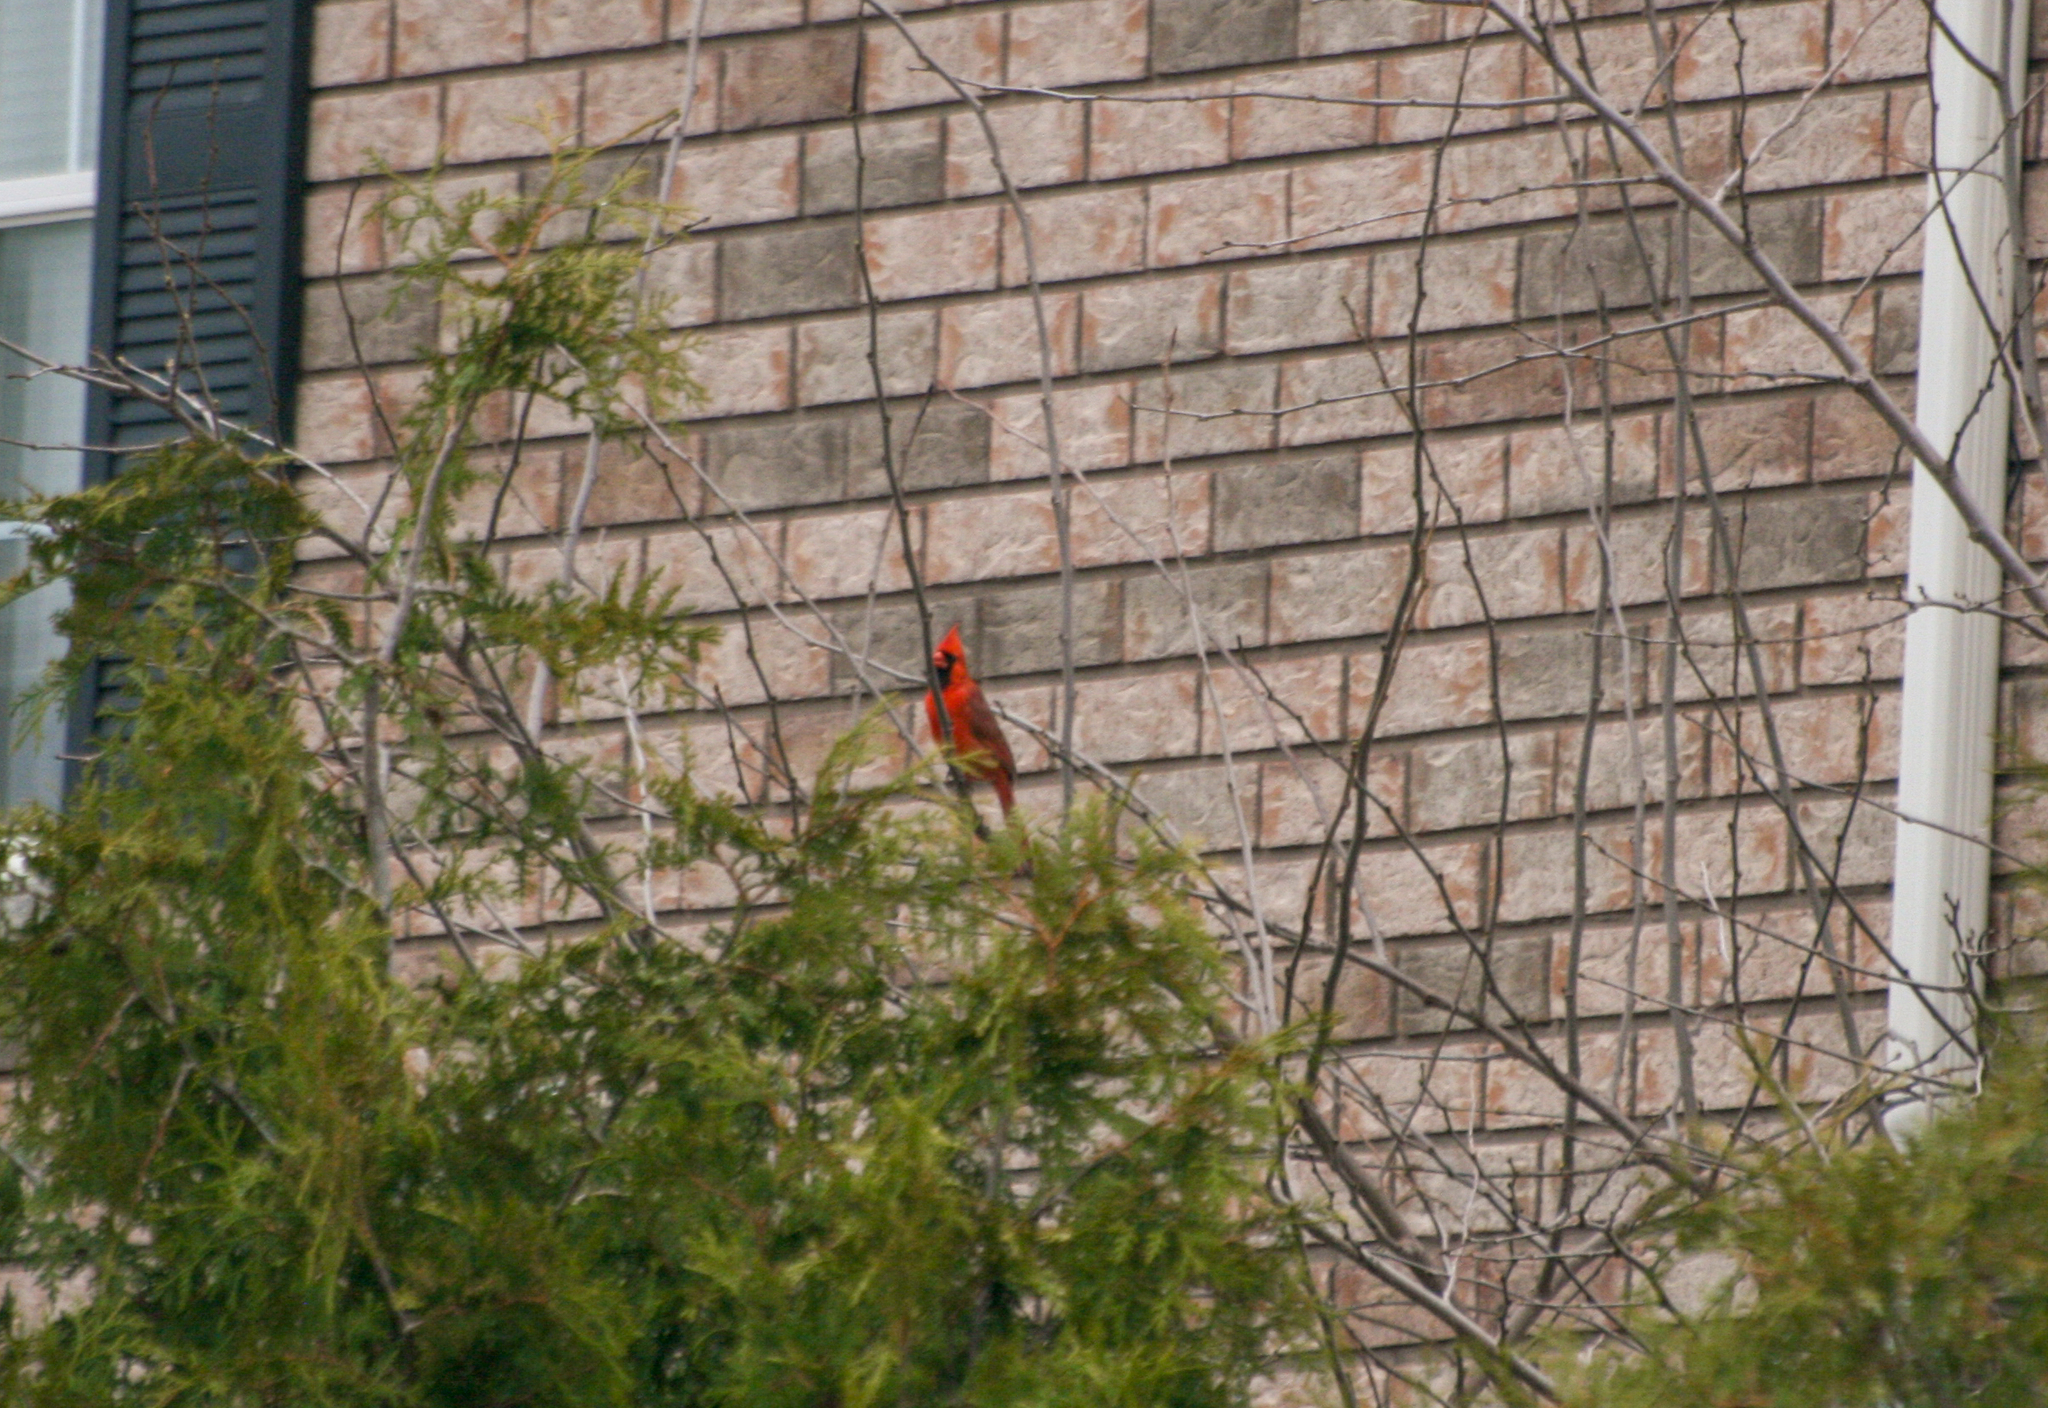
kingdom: Animalia
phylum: Chordata
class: Aves
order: Passeriformes
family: Cardinalidae
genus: Cardinalis
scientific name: Cardinalis cardinalis
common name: Northern cardinal
